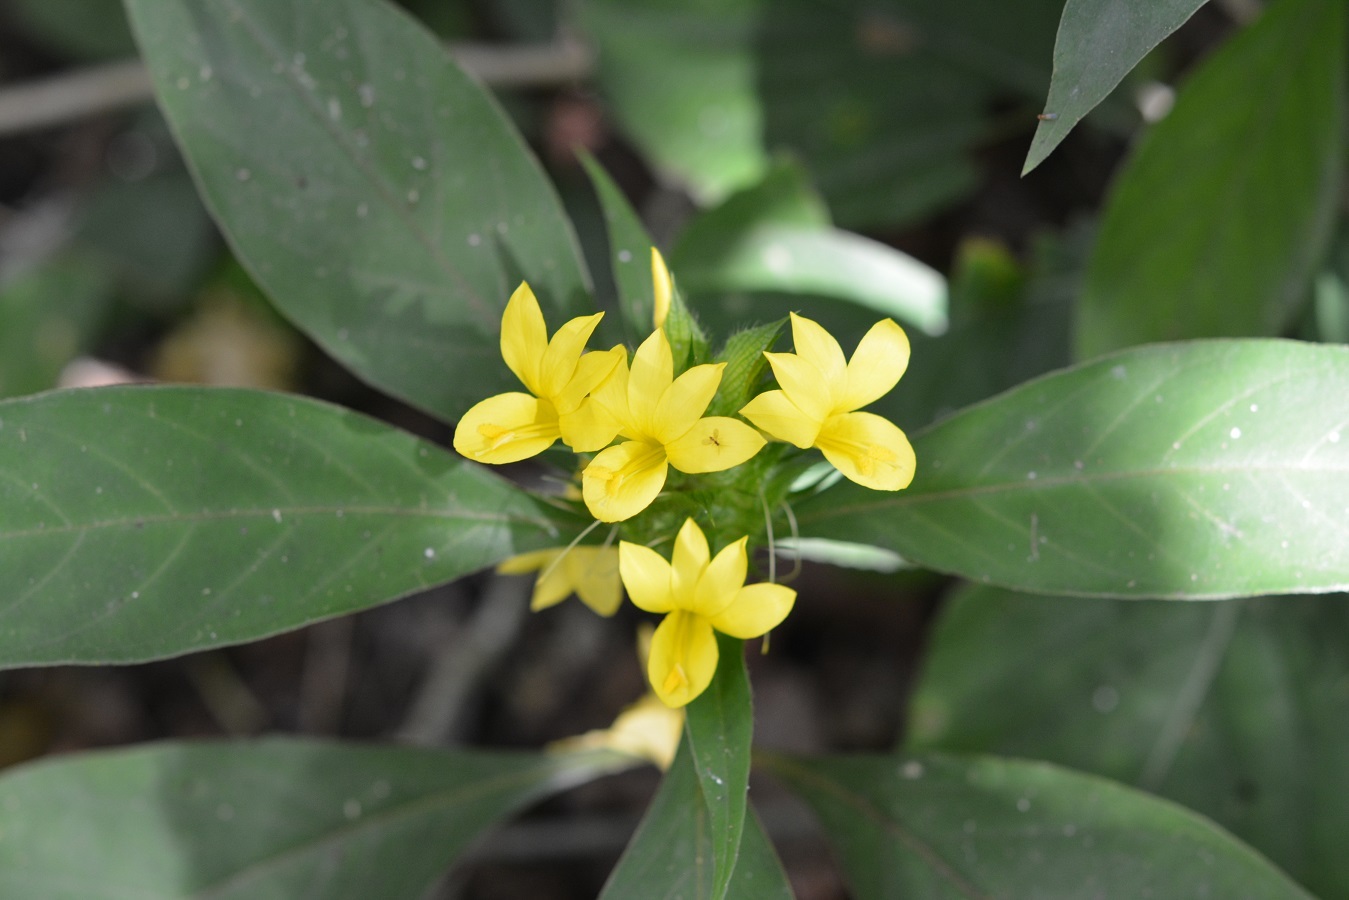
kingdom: Plantae
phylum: Tracheophyta
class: Magnoliopsida
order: Lamiales
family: Acanthaceae
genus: Barleria
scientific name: Barleria oenotheroides
